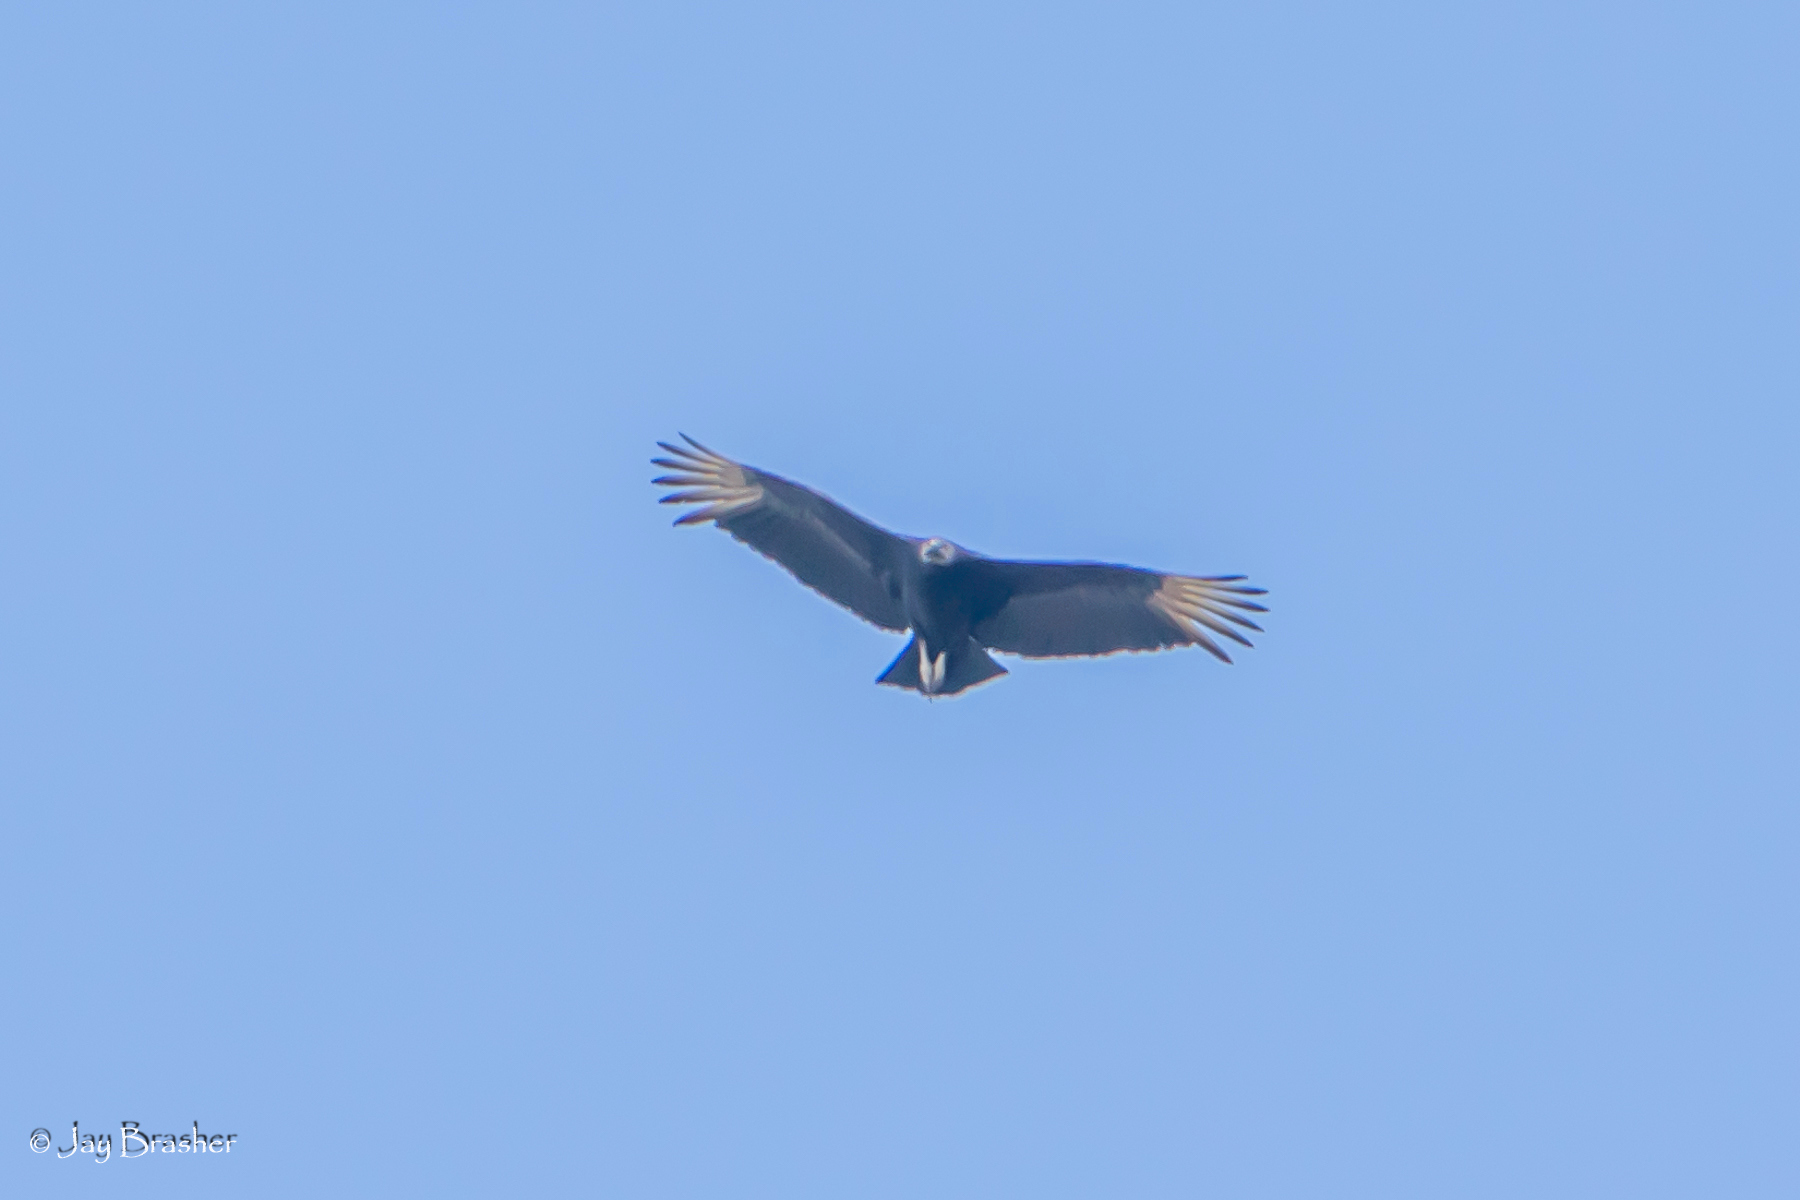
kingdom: Animalia
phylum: Chordata
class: Aves
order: Accipitriformes
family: Cathartidae
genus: Coragyps
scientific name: Coragyps atratus
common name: Black vulture
